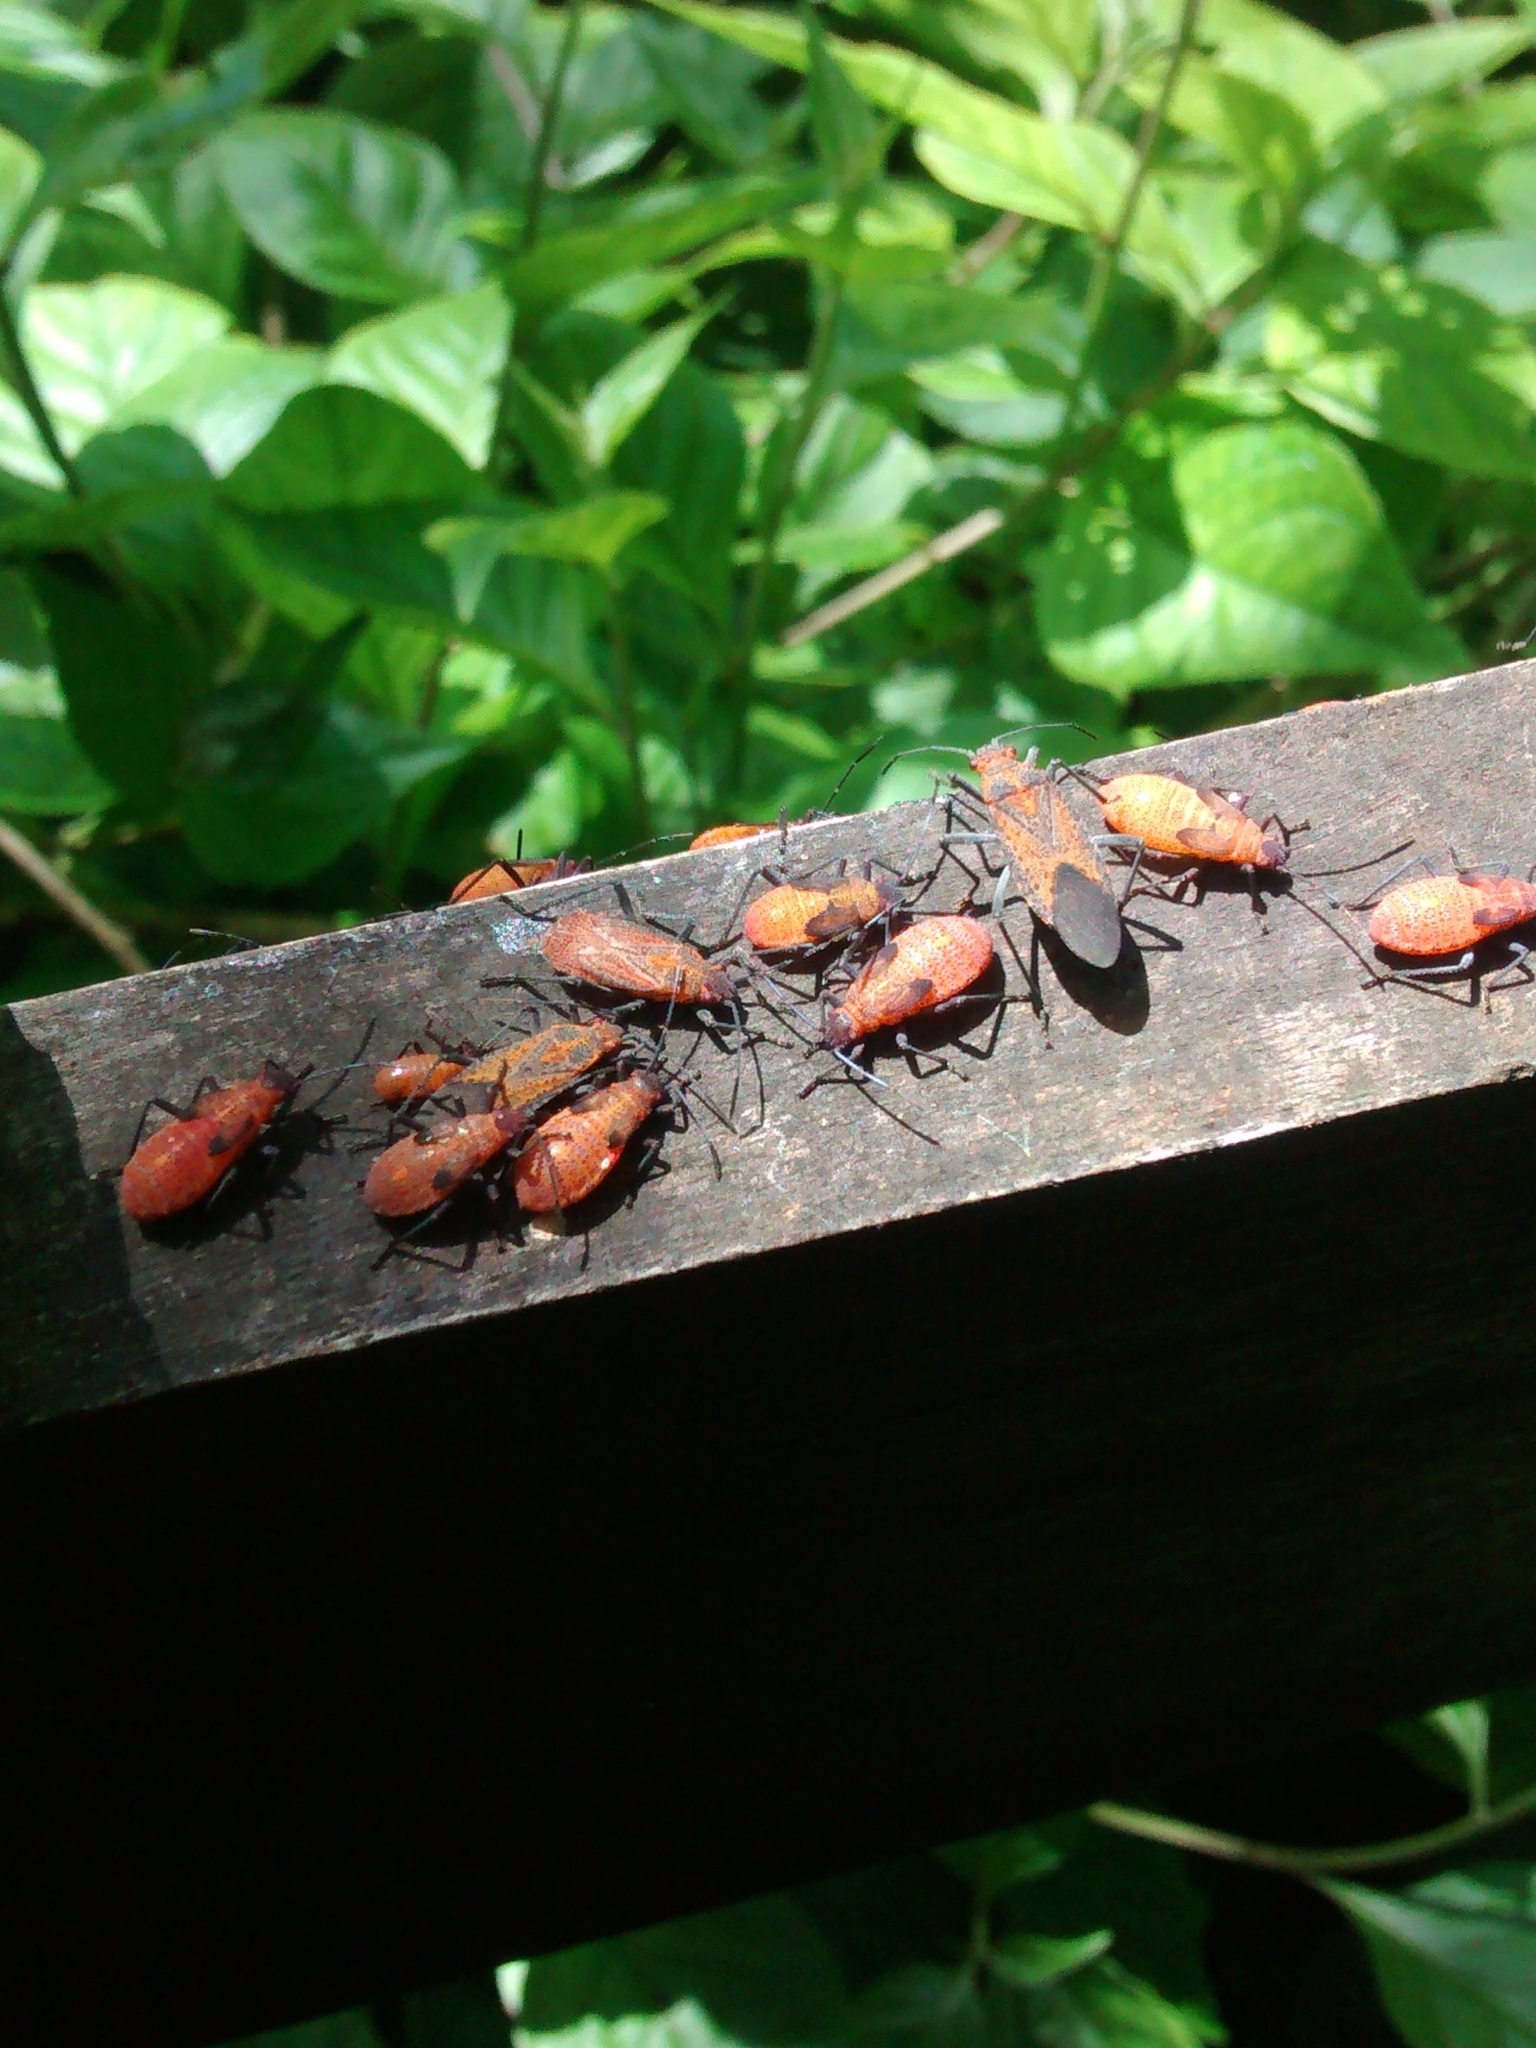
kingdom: Animalia
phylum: Arthropoda
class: Insecta
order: Hemiptera
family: Rhopalidae
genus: Jadera
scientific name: Jadera choprai
